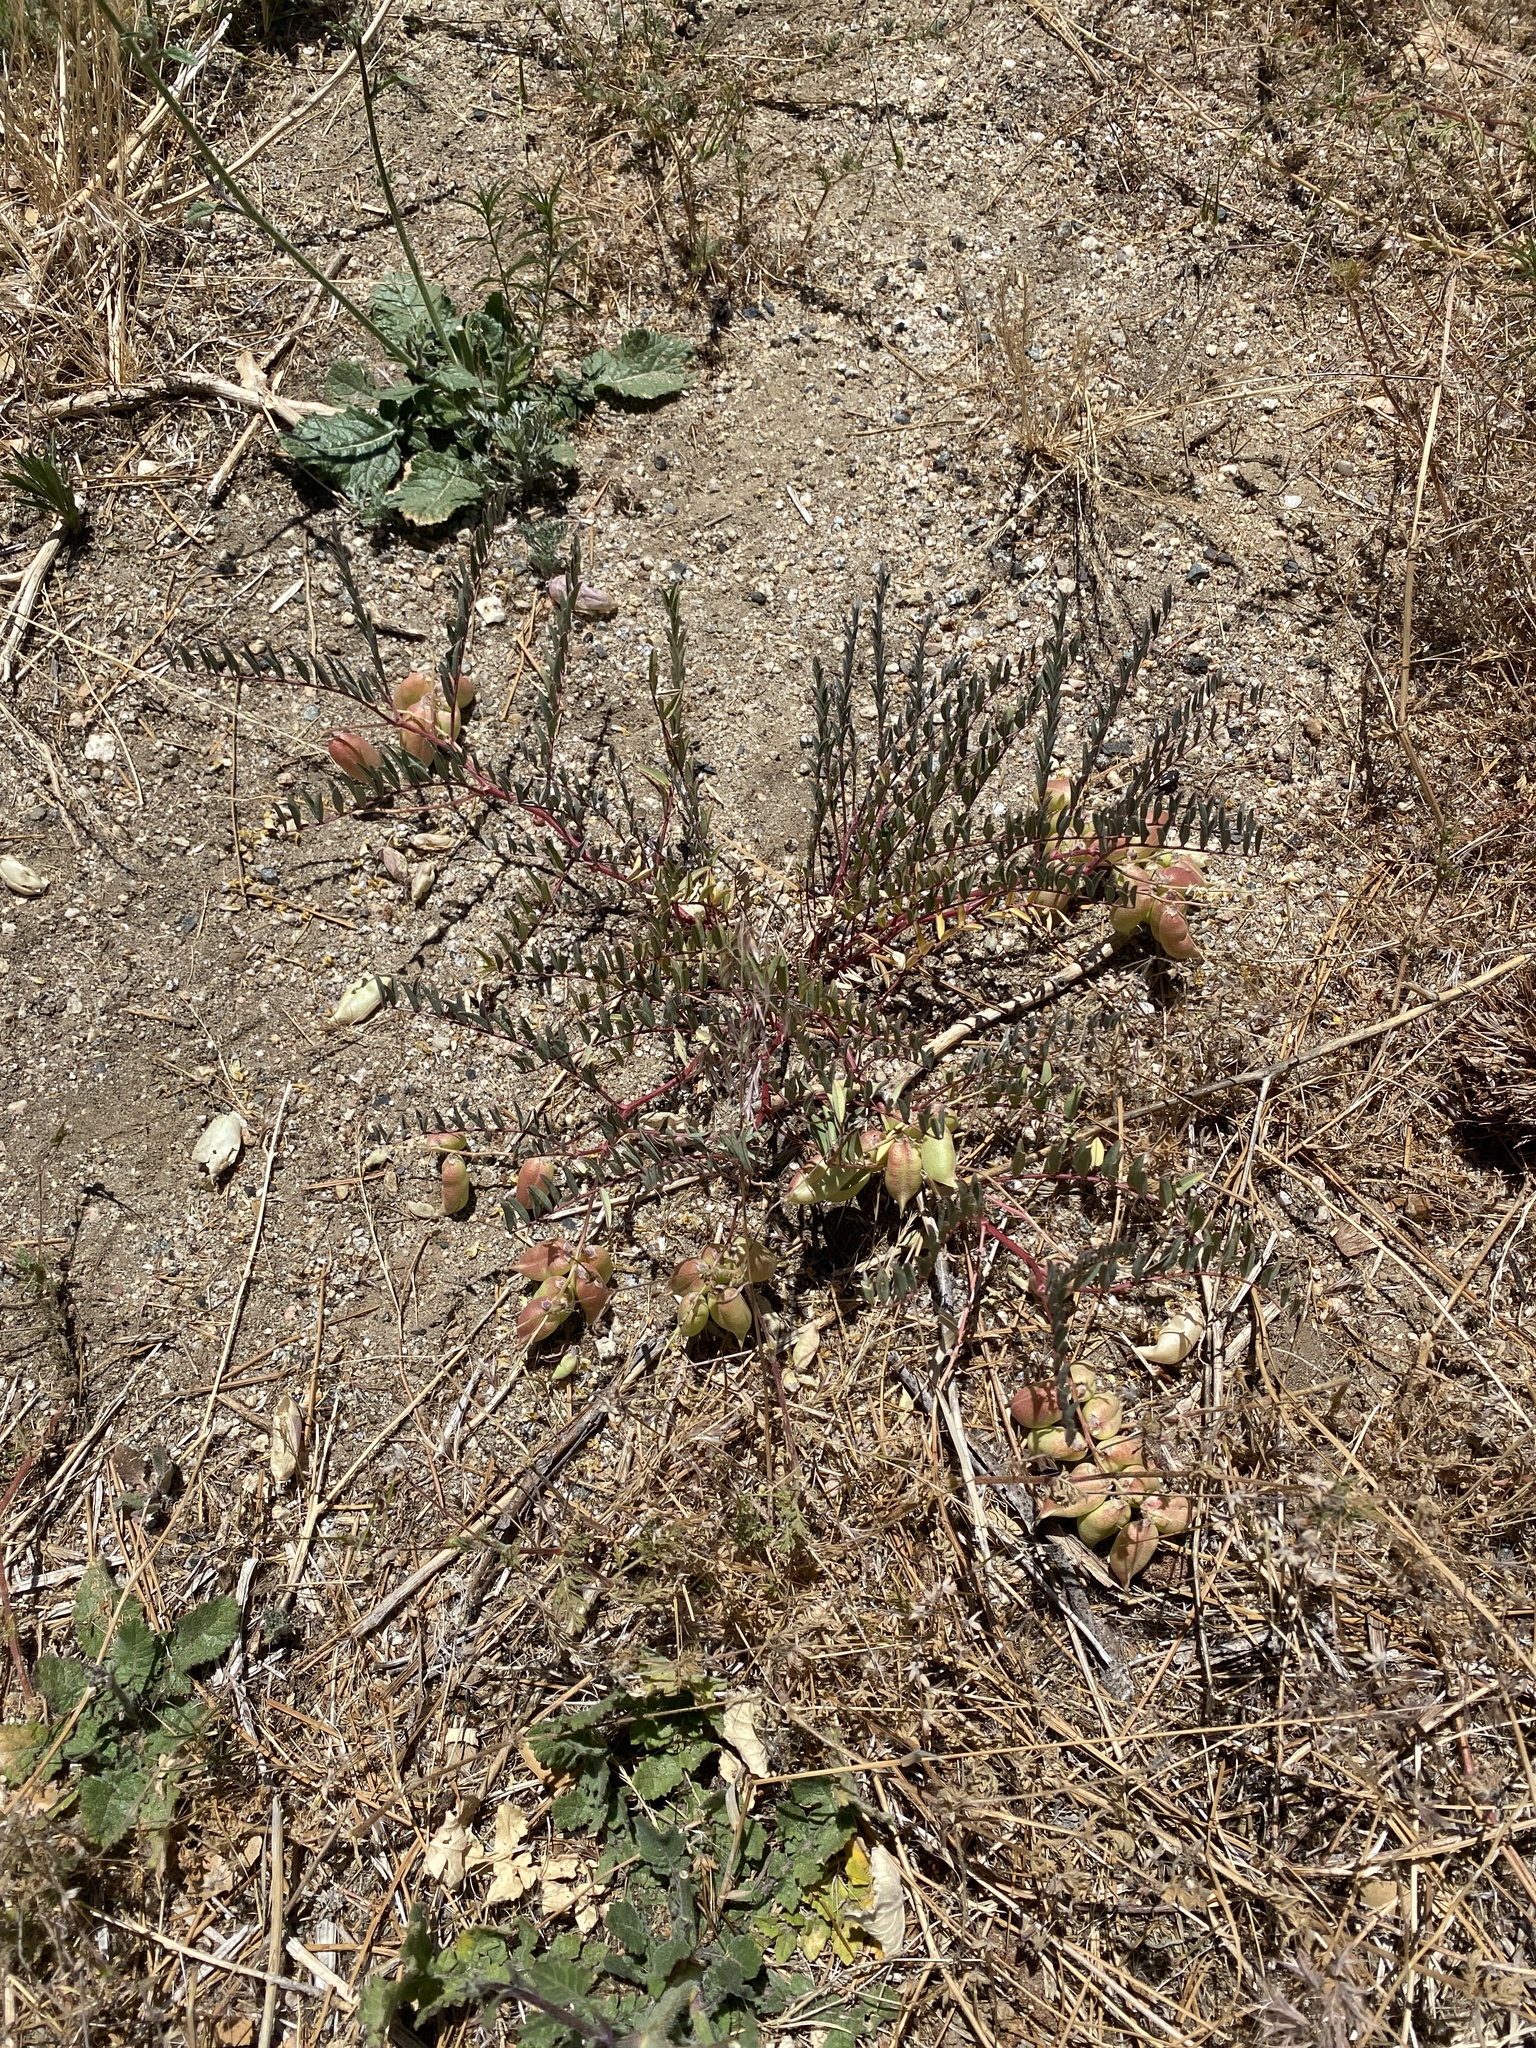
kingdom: Plantae
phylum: Tracheophyta
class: Magnoliopsida
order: Fabales
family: Fabaceae
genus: Astragalus
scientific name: Astragalus douglasii
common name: Jacumba milkvetch
